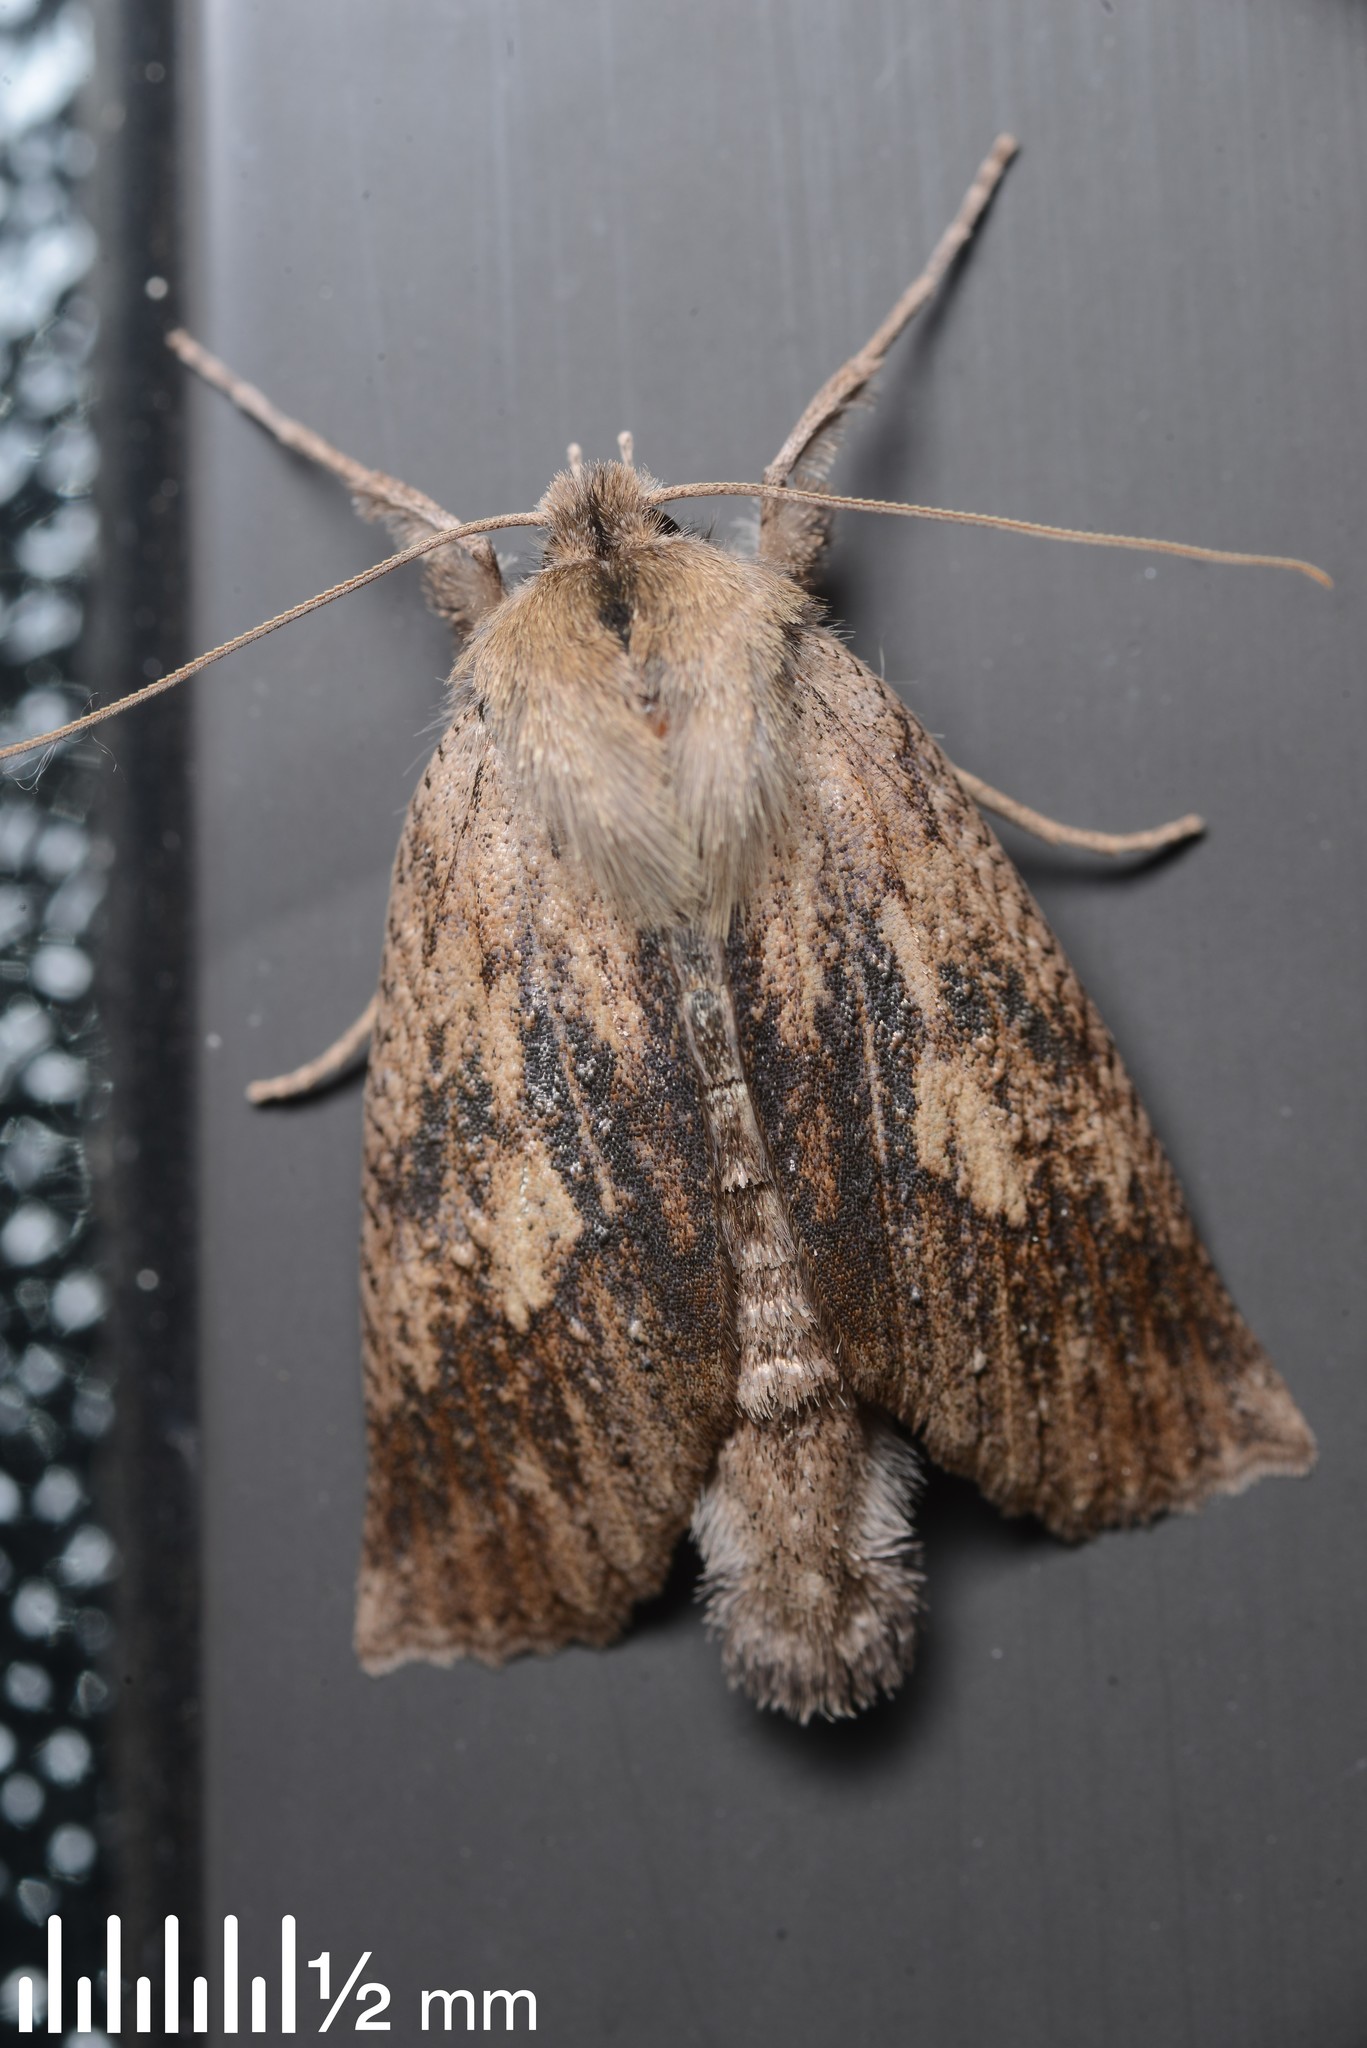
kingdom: Animalia
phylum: Arthropoda
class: Insecta
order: Lepidoptera
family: Geometridae
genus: Declana
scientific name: Declana leptomera
